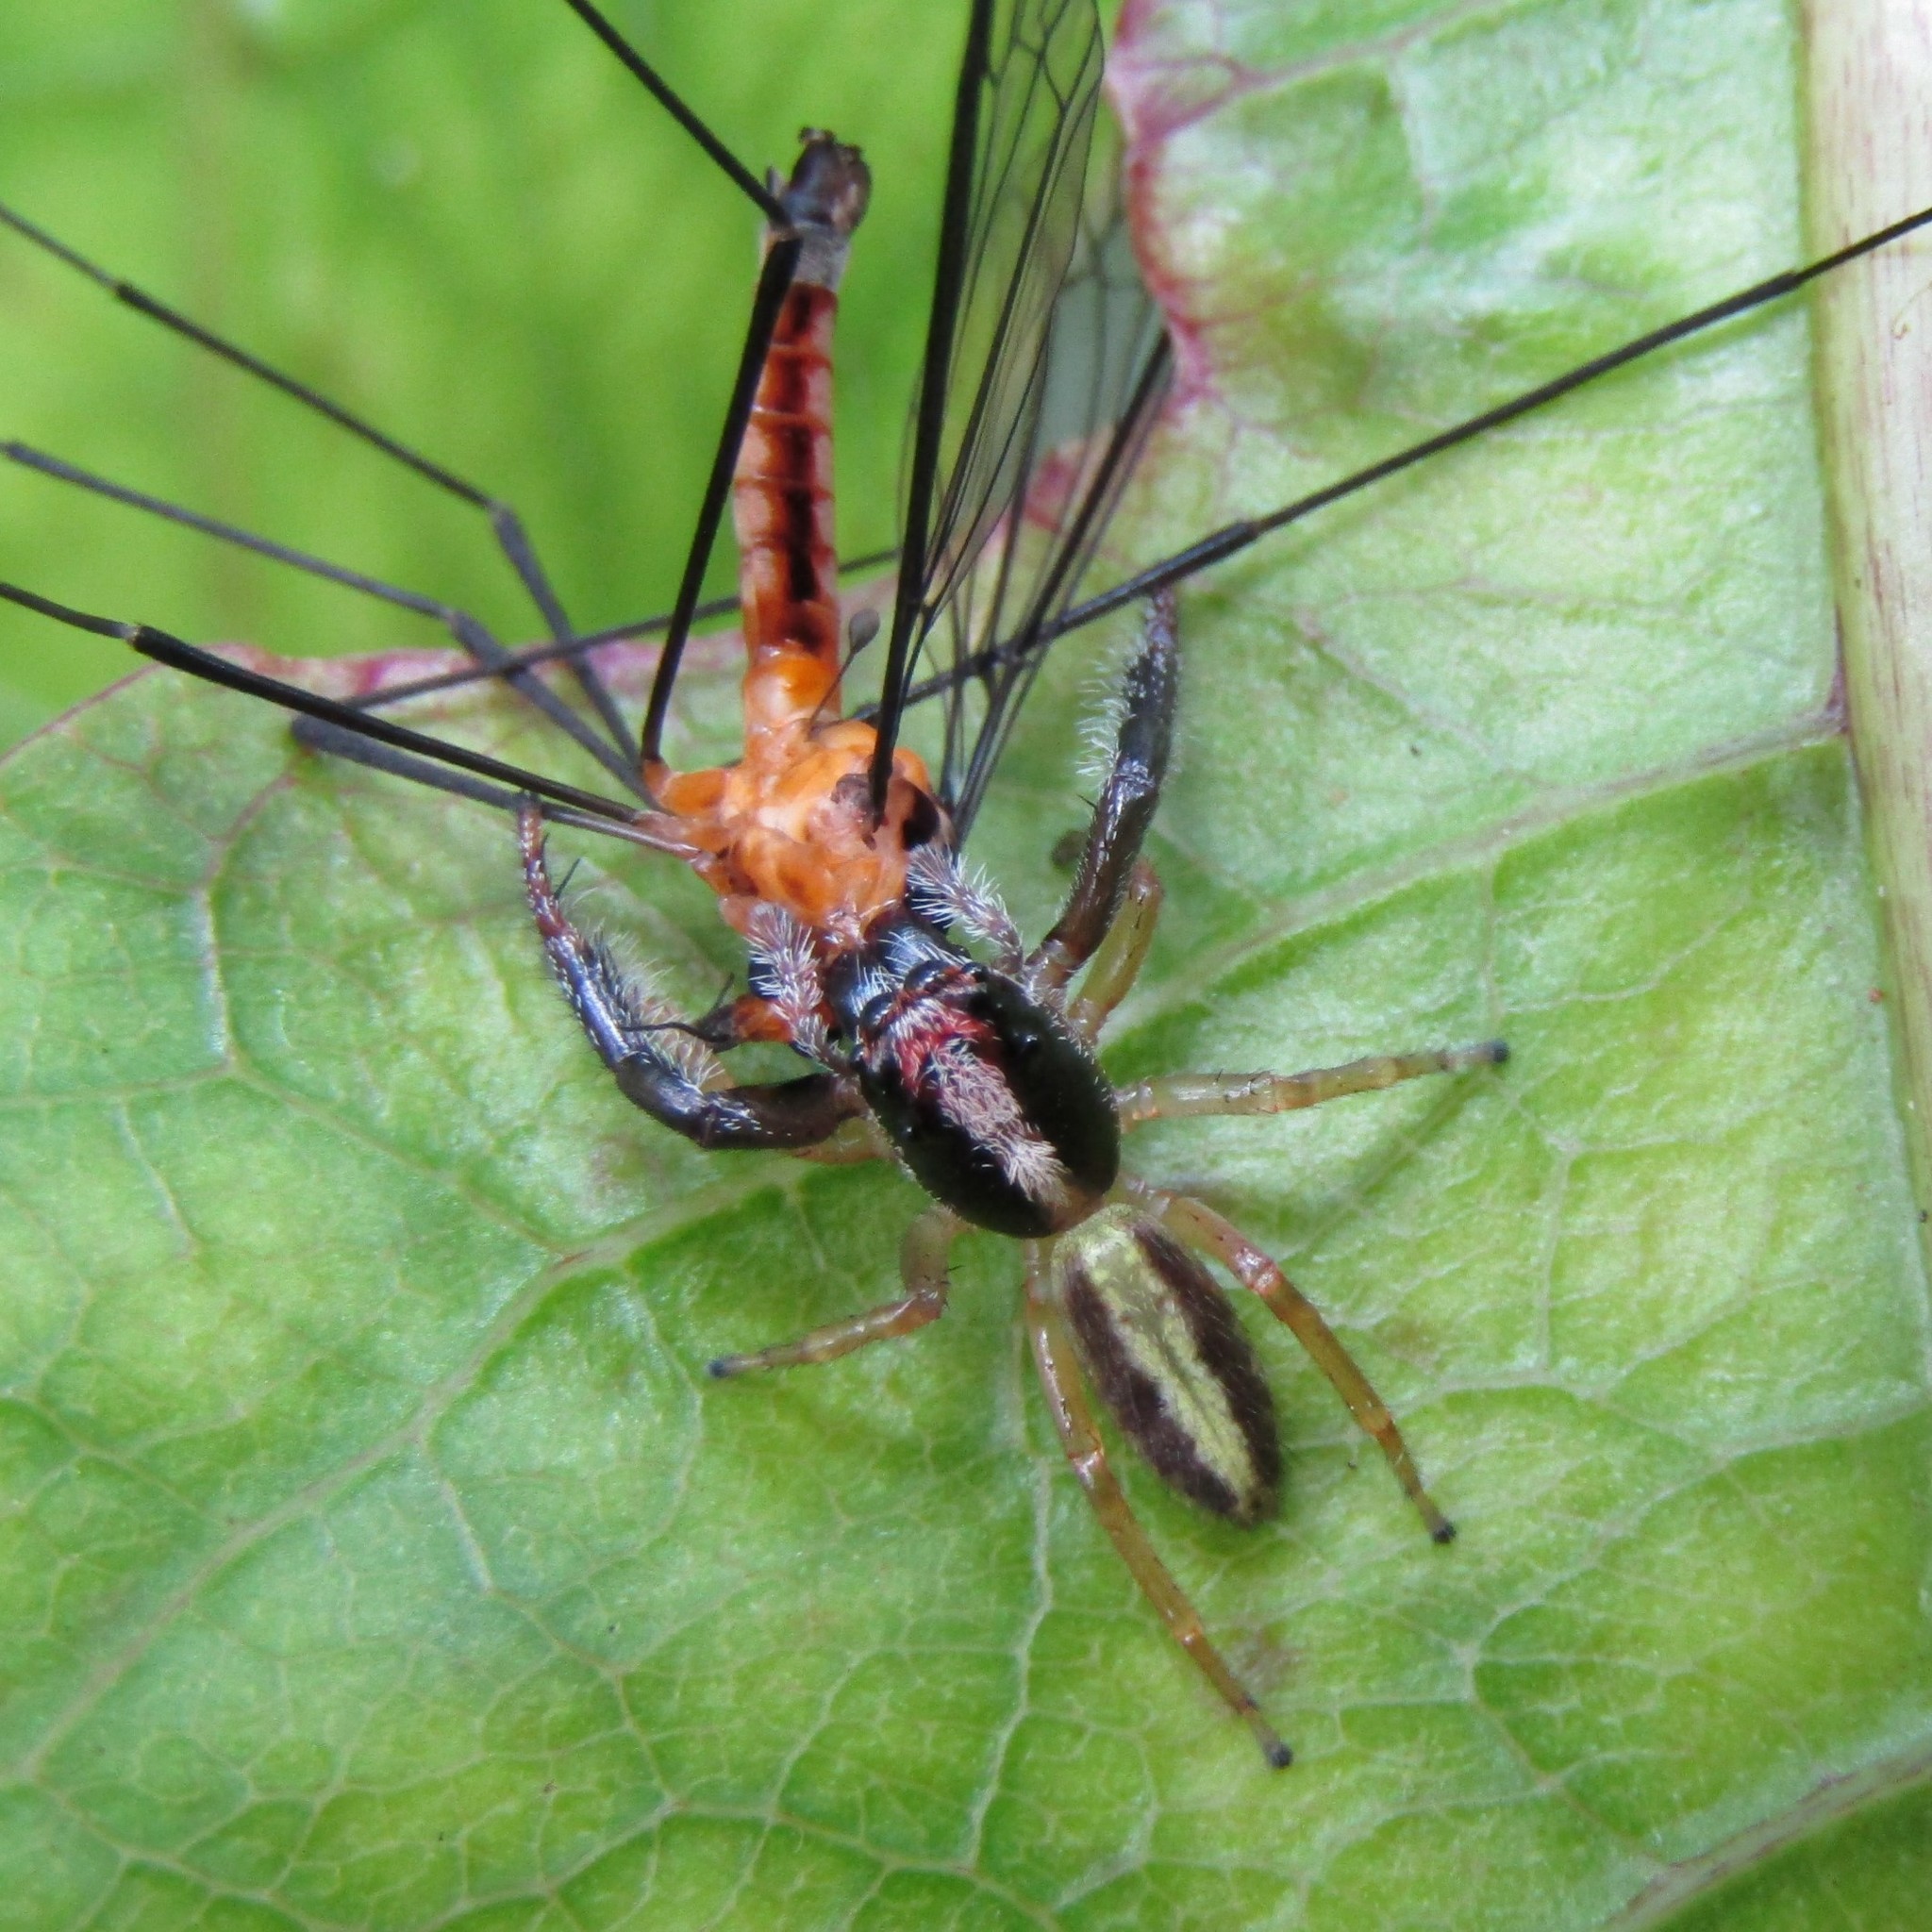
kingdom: Animalia
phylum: Arthropoda
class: Arachnida
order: Araneae
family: Salticidae
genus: Trite
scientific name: Trite planiceps
